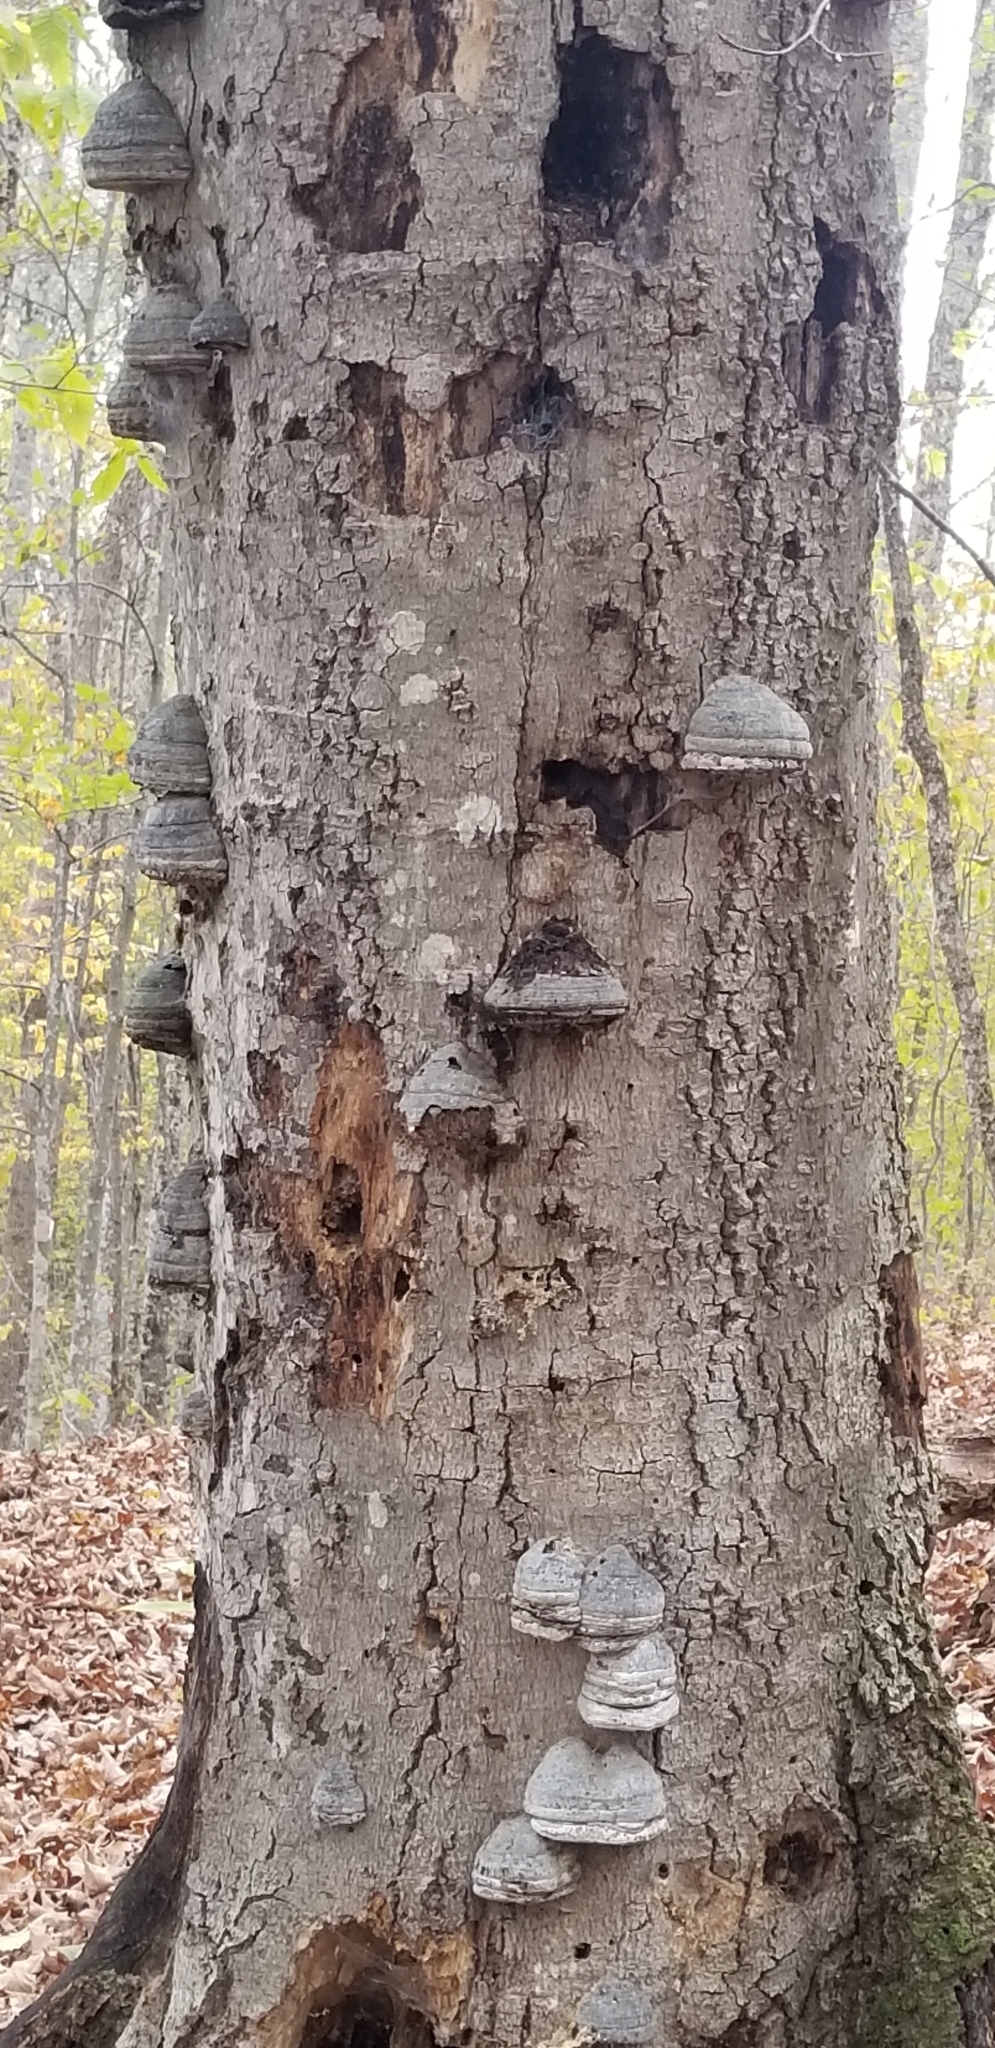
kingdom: Fungi
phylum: Basidiomycota
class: Agaricomycetes
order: Polyporales
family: Polyporaceae
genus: Fomes
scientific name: Fomes fomentarius
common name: Hoof fungus
